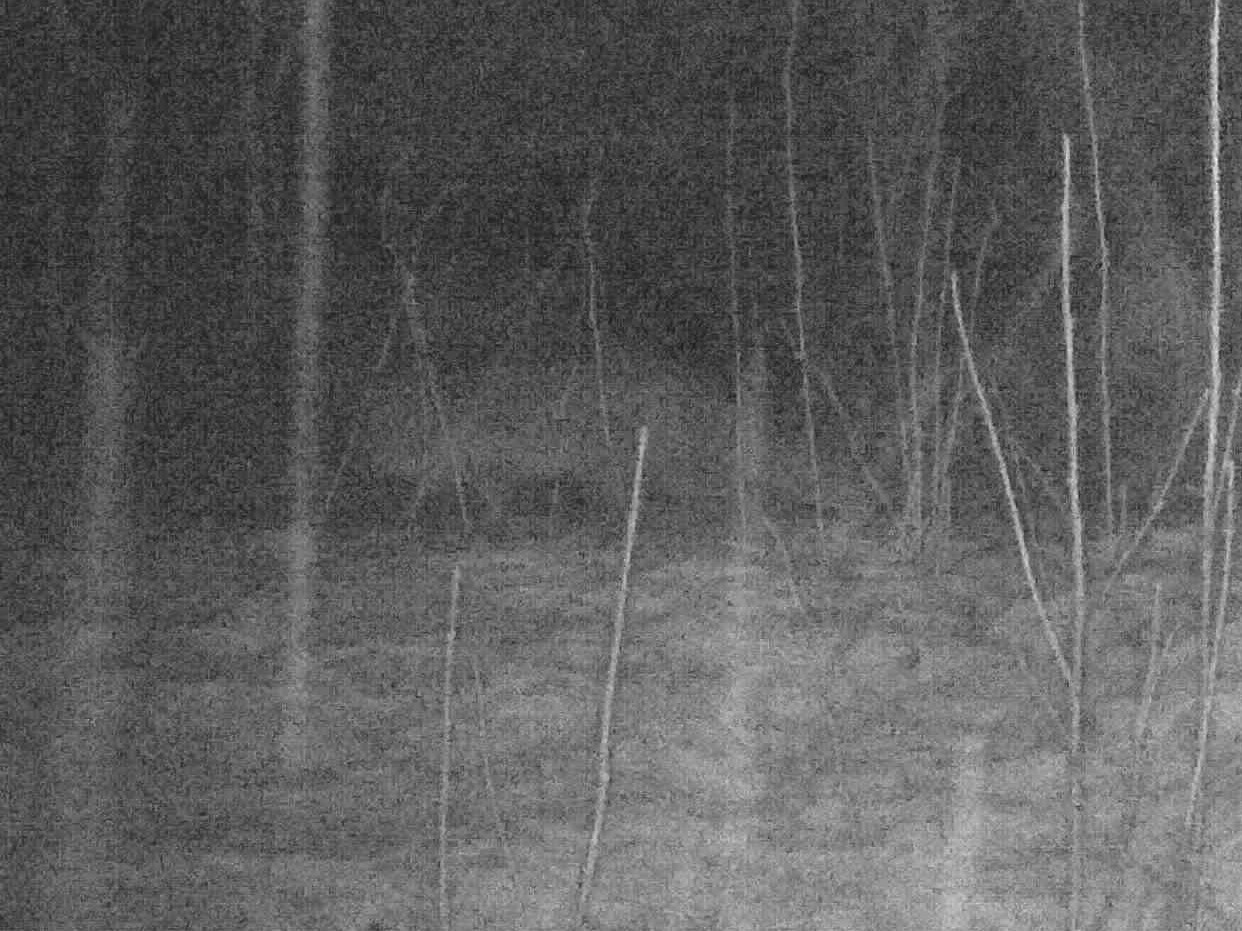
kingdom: Animalia
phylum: Chordata
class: Mammalia
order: Carnivora
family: Canidae
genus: Vulpes
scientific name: Vulpes vulpes
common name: Red fox
